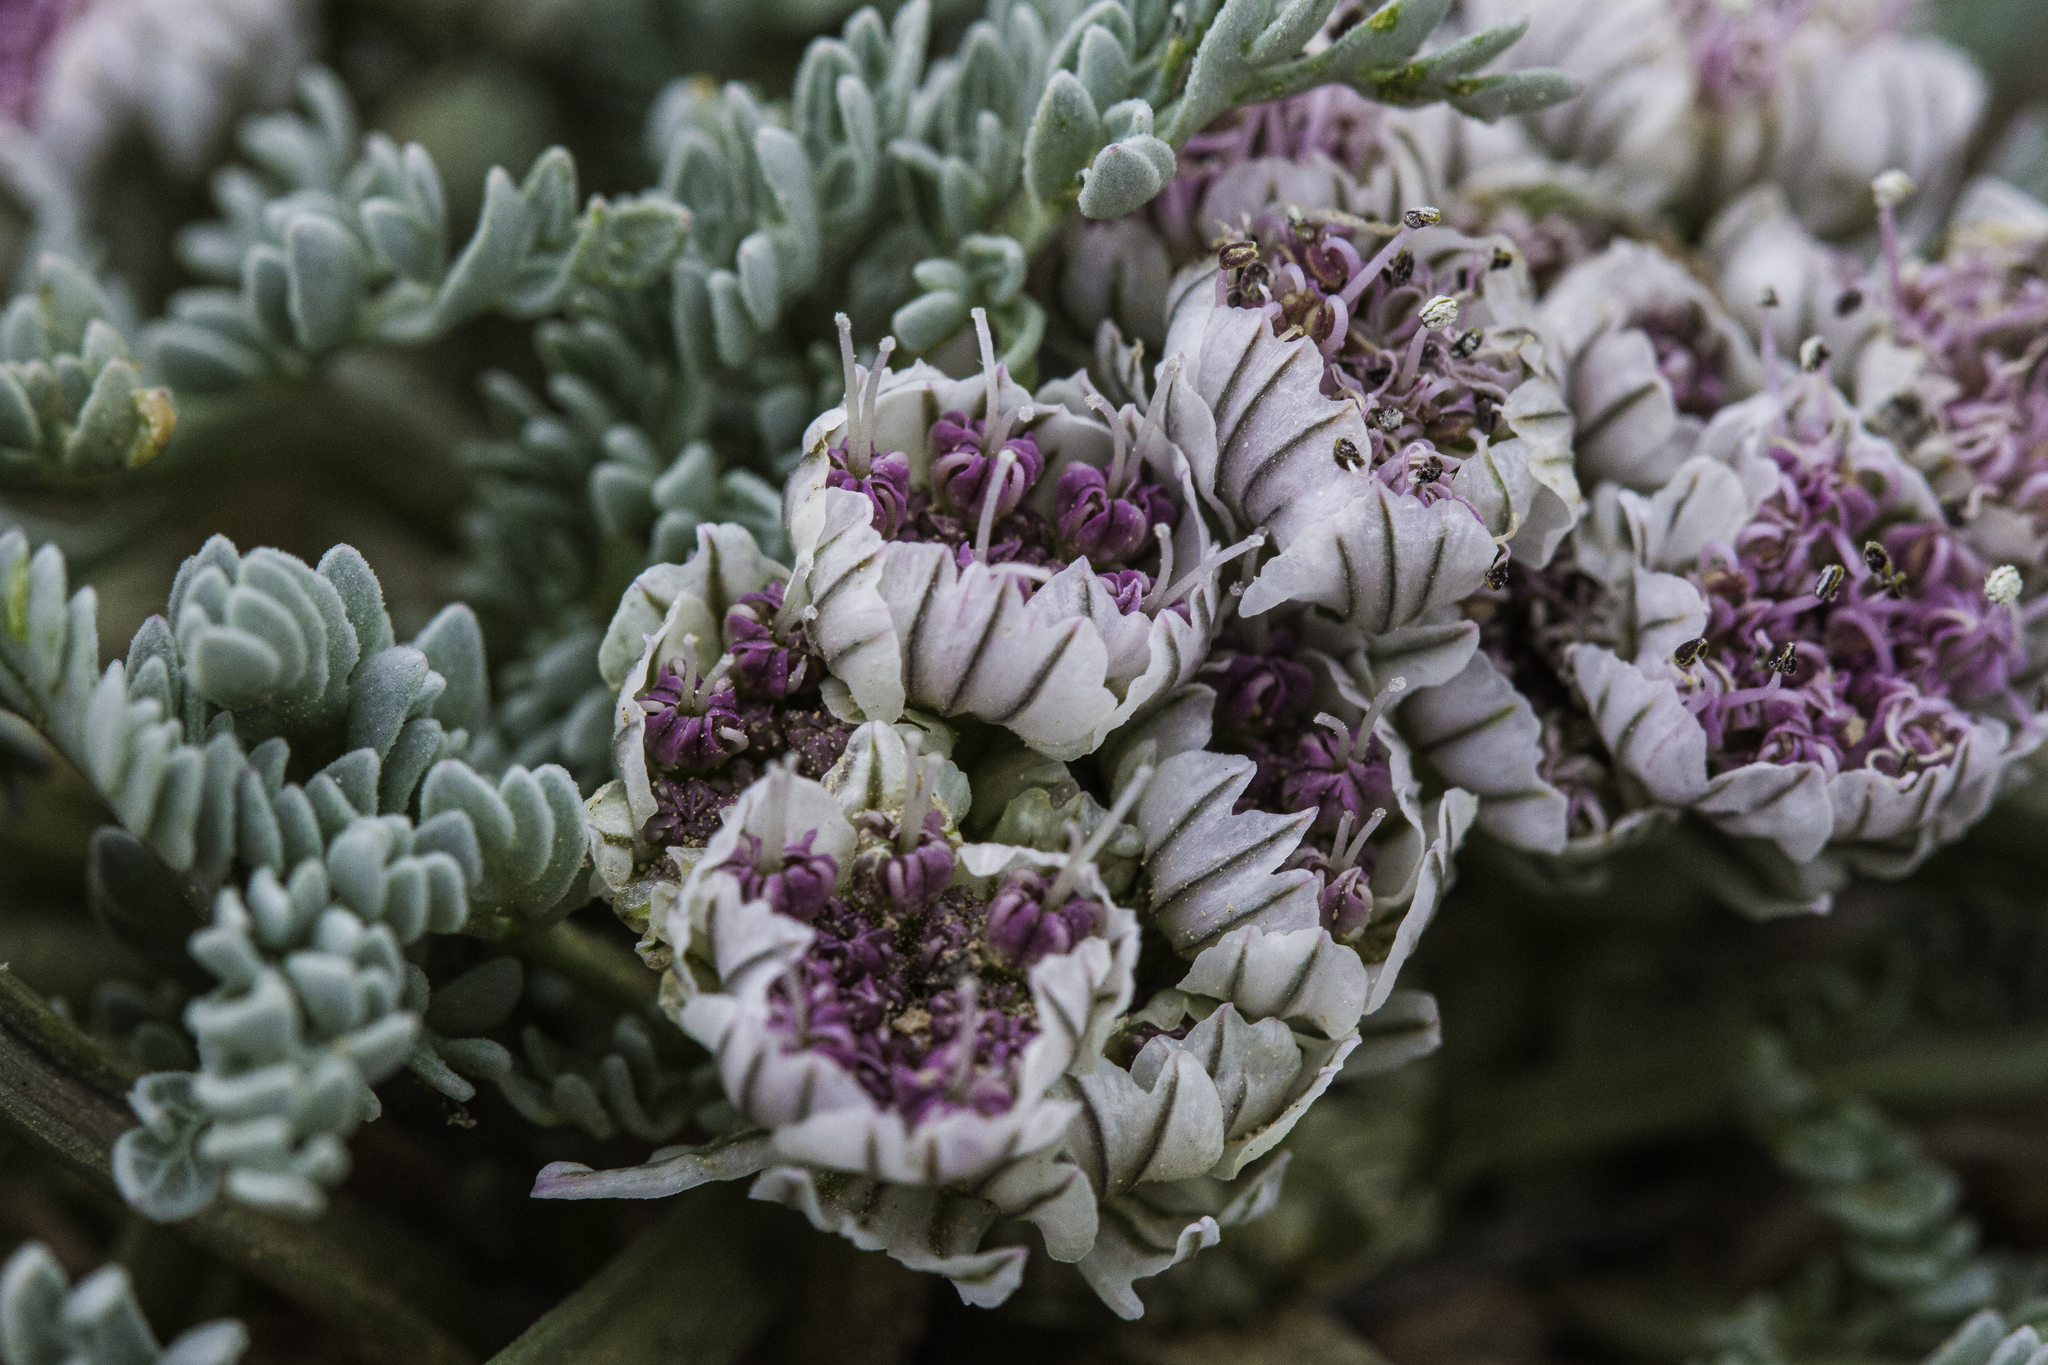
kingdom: Plantae
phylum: Tracheophyta
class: Magnoliopsida
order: Apiales
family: Apiaceae
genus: Vesper
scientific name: Vesper constancei
